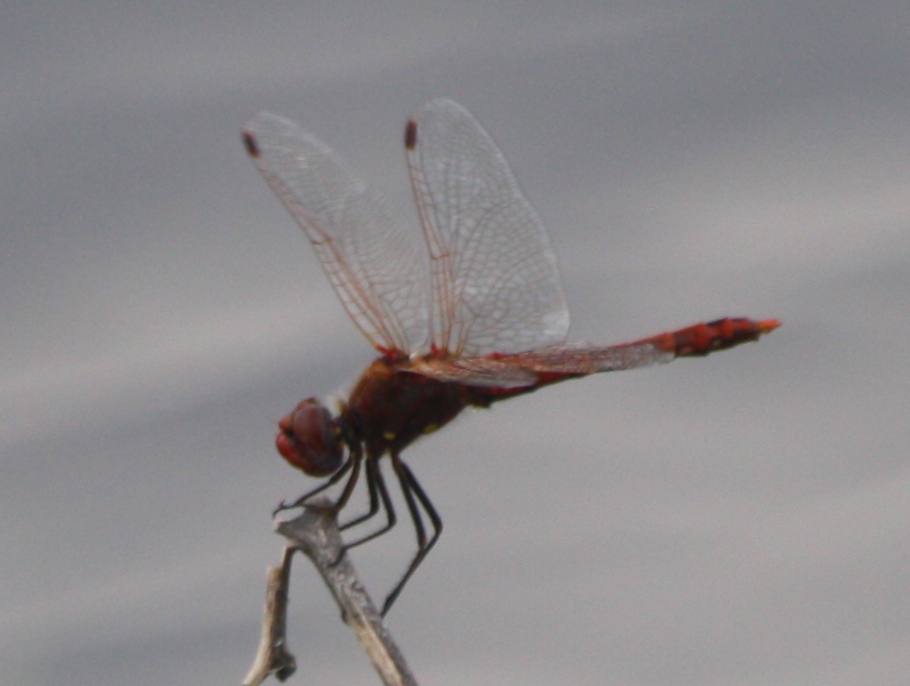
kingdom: Animalia
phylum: Arthropoda
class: Insecta
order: Odonata
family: Libellulidae
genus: Sympetrum
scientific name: Sympetrum corruptum
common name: Variegated meadowhawk
